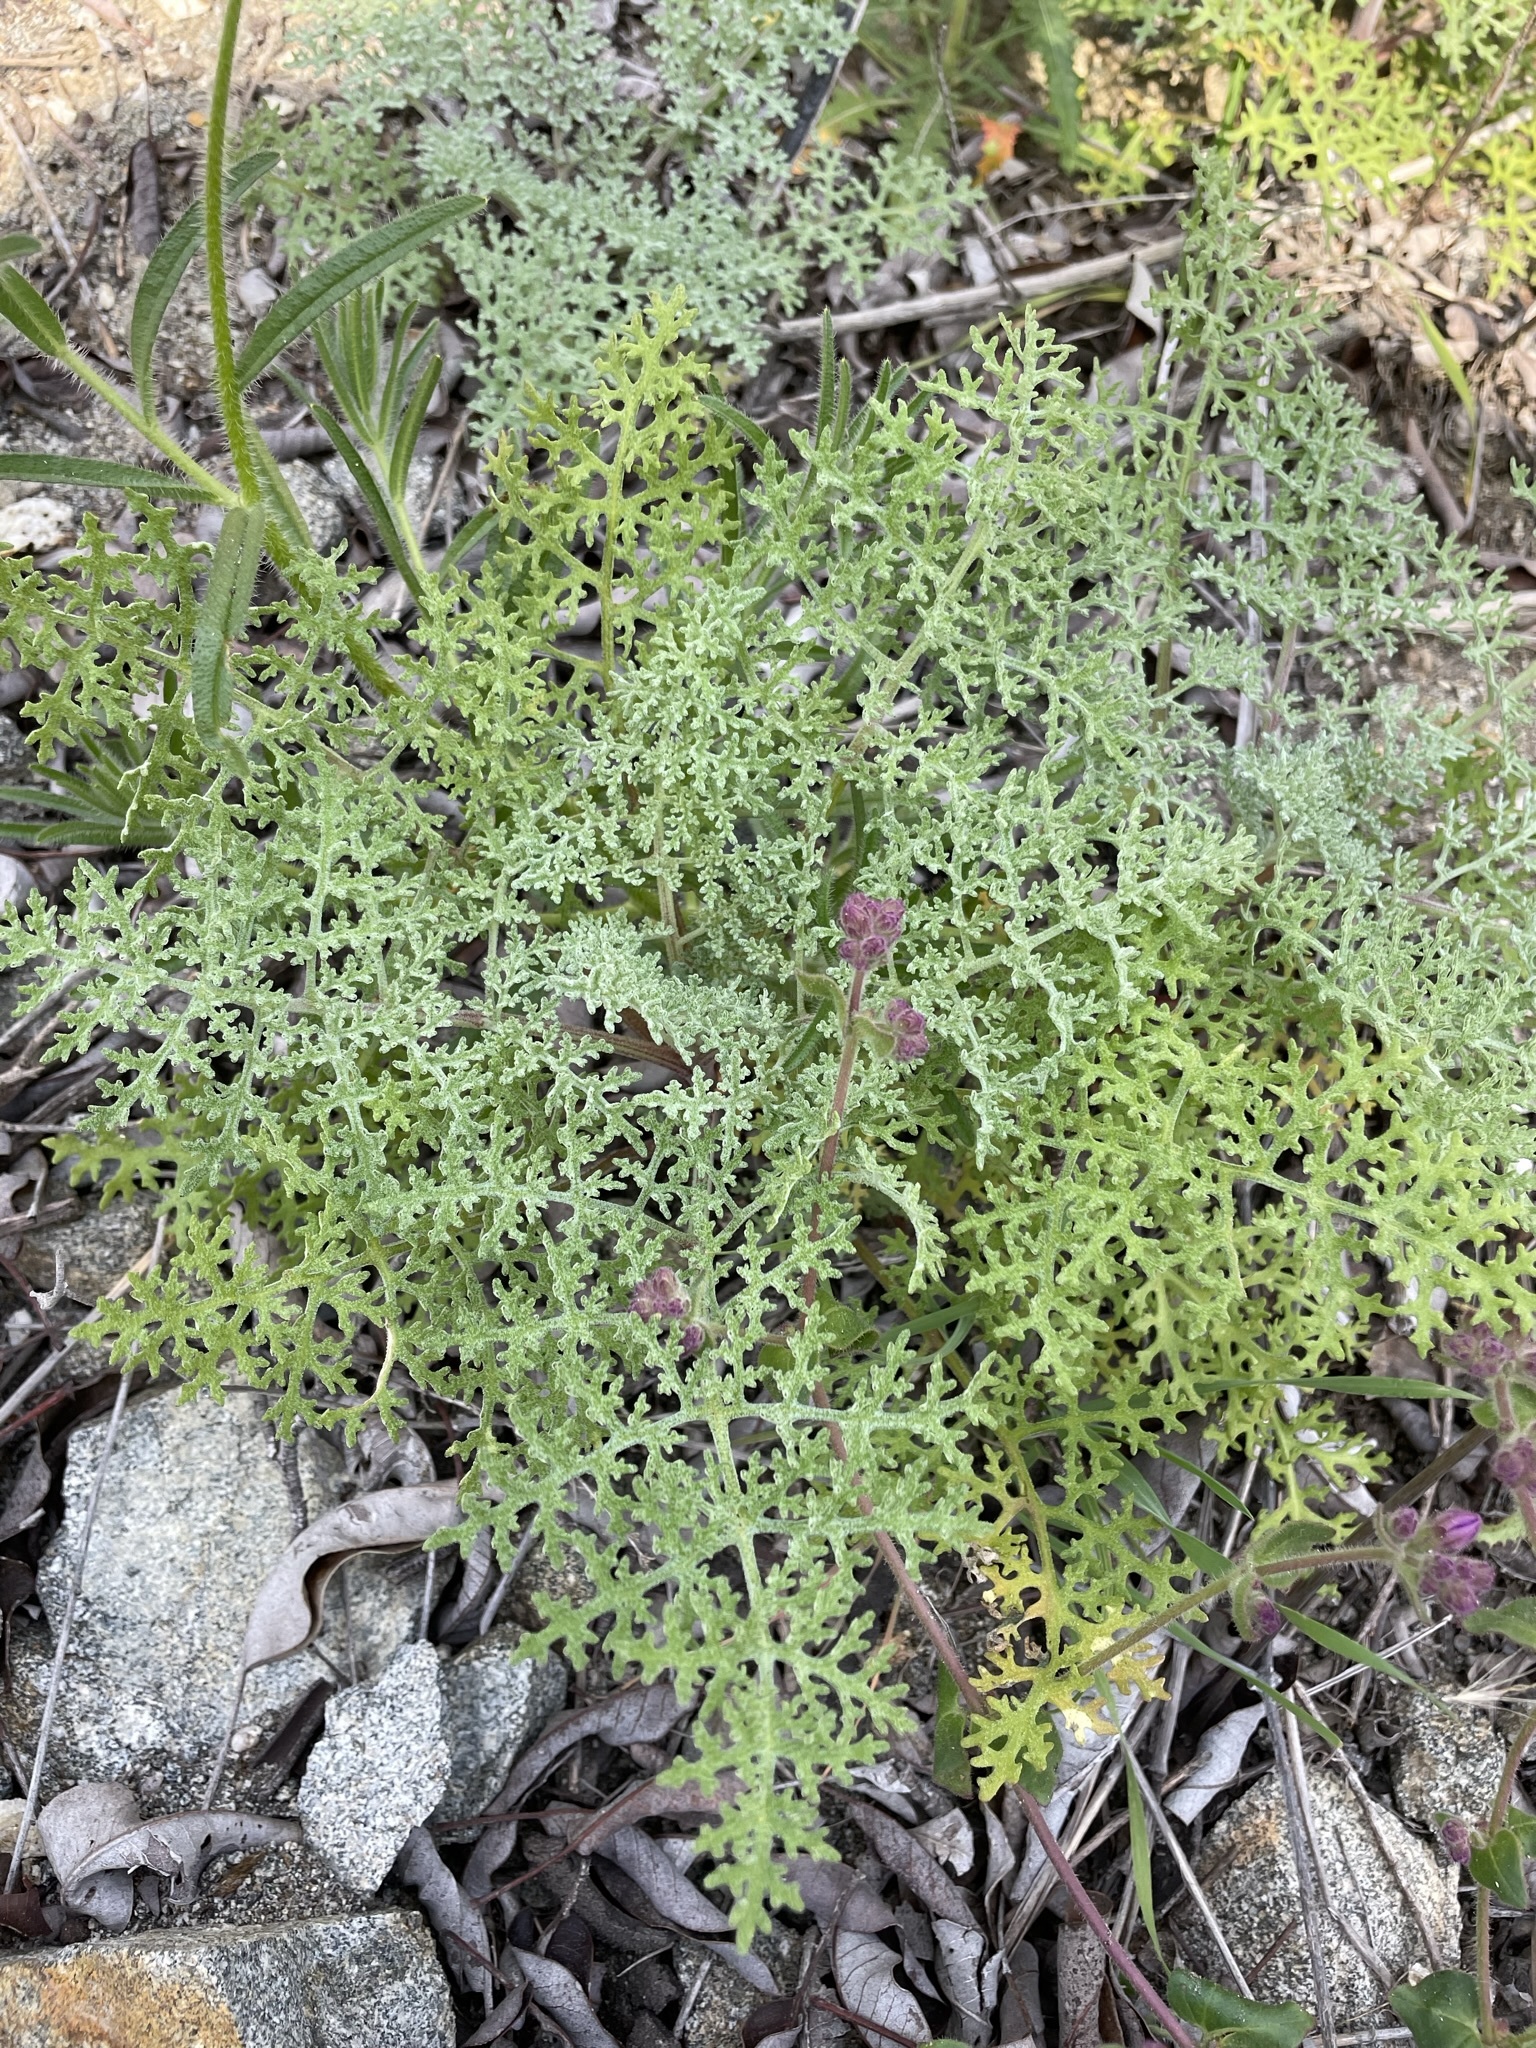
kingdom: Plantae
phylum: Tracheophyta
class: Magnoliopsida
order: Asterales
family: Asteraceae
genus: Chaenactis
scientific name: Chaenactis artemisiifolia
